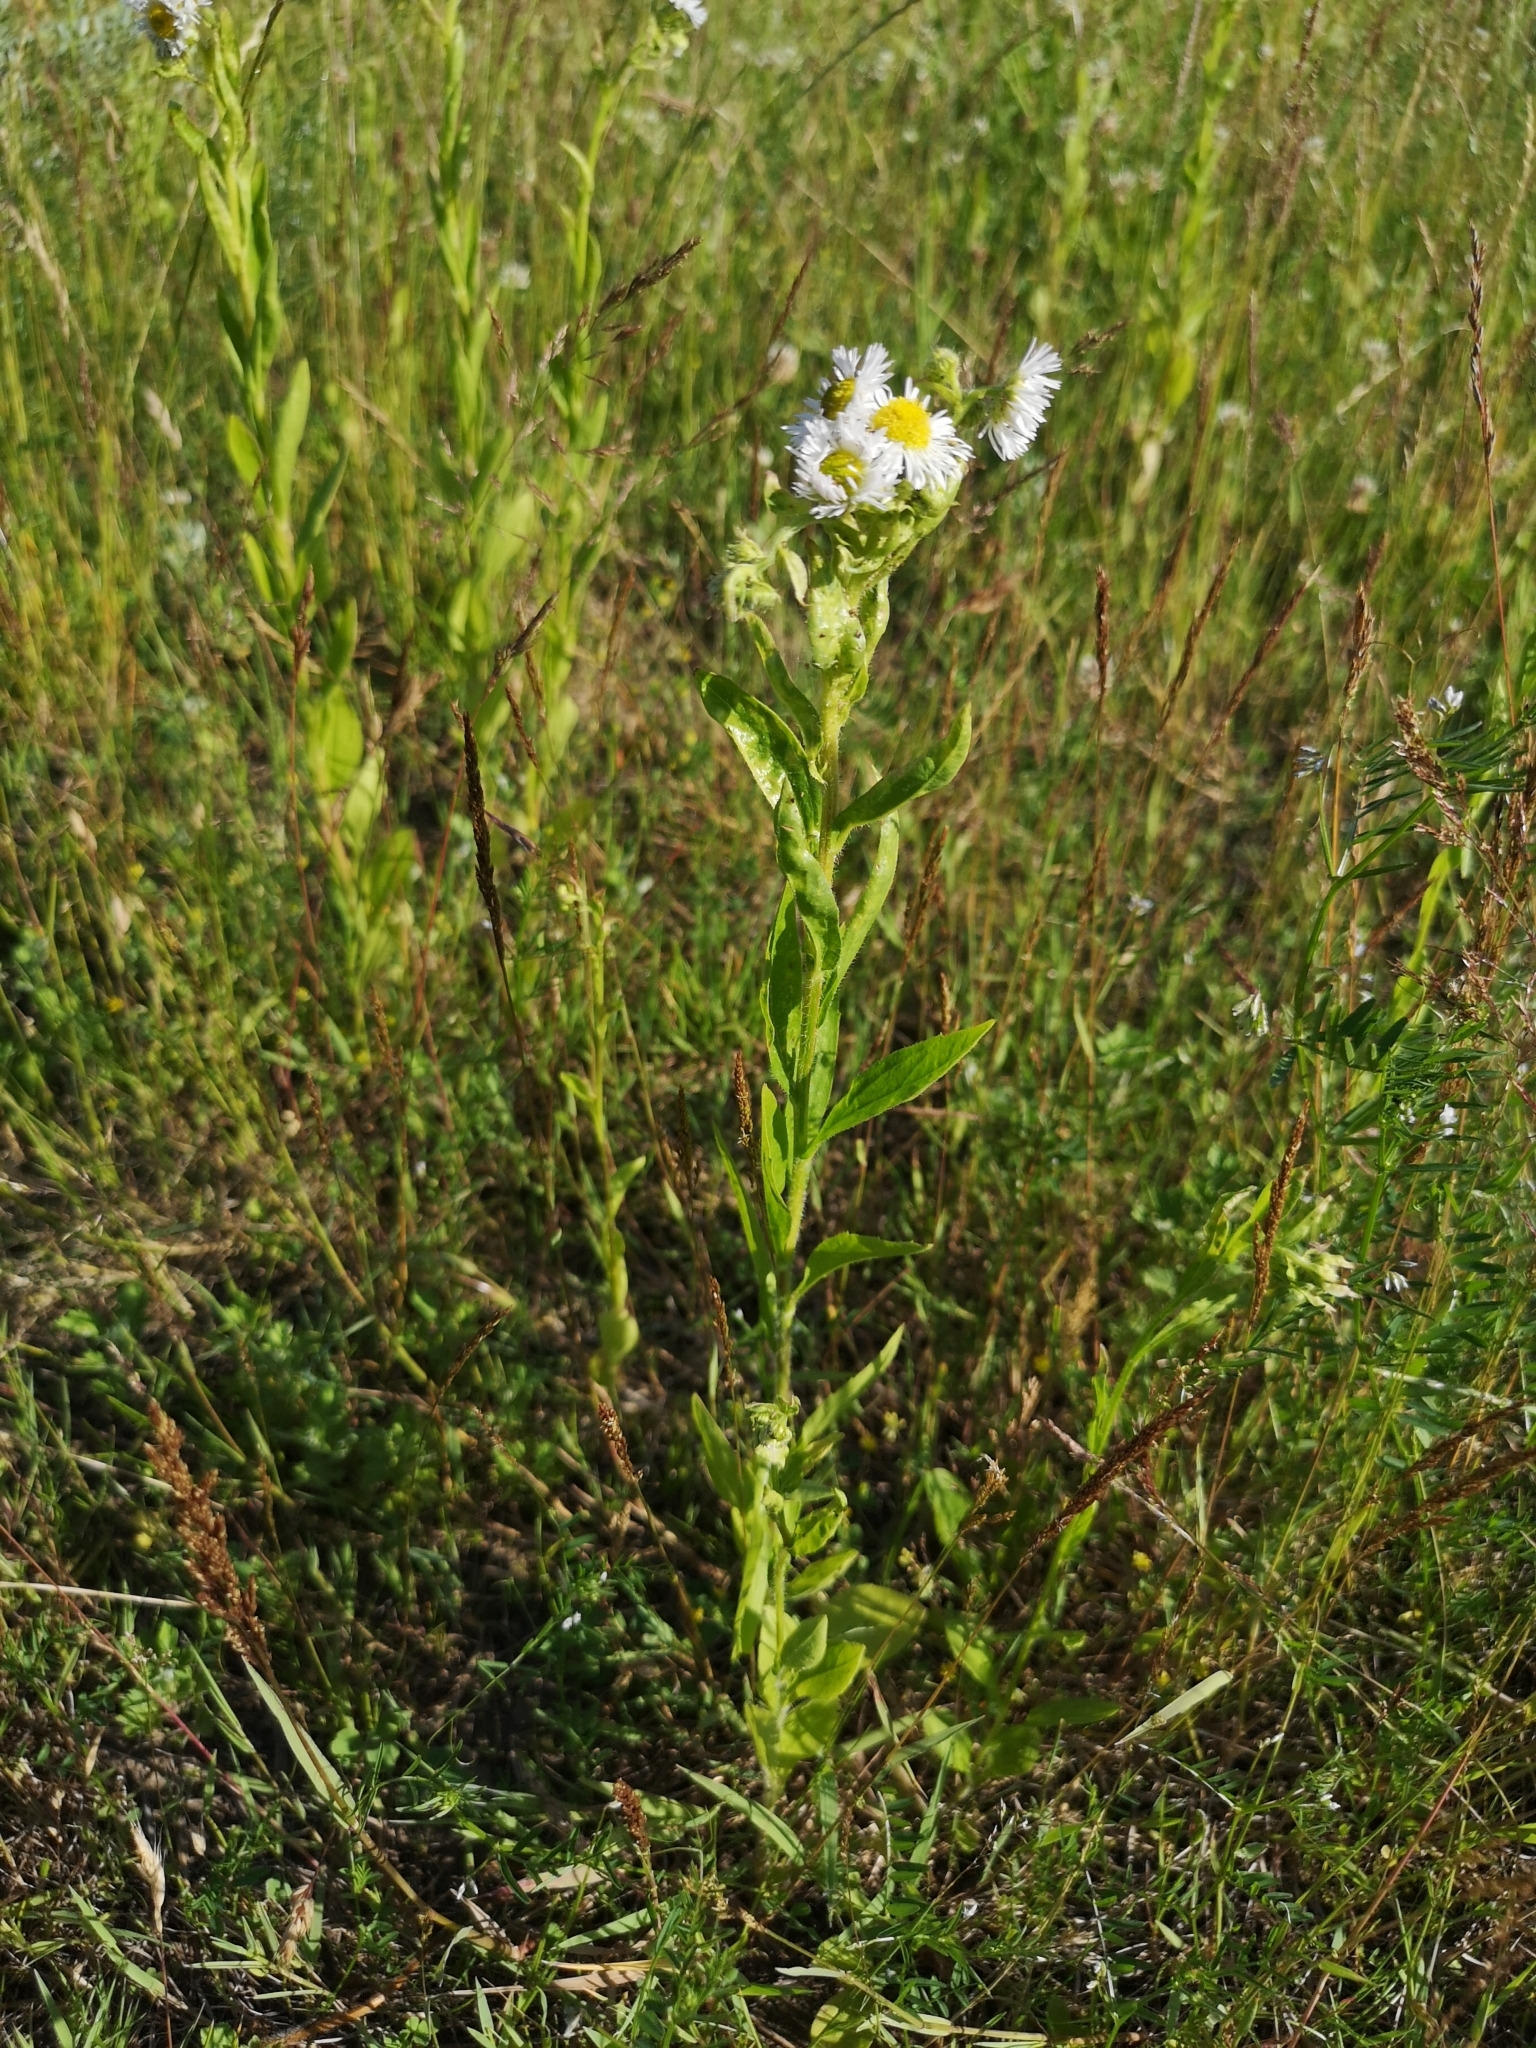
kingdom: Plantae
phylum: Tracheophyta
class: Magnoliopsida
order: Asterales
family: Asteraceae
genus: Erigeron
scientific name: Erigeron annuus
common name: Tall fleabane
